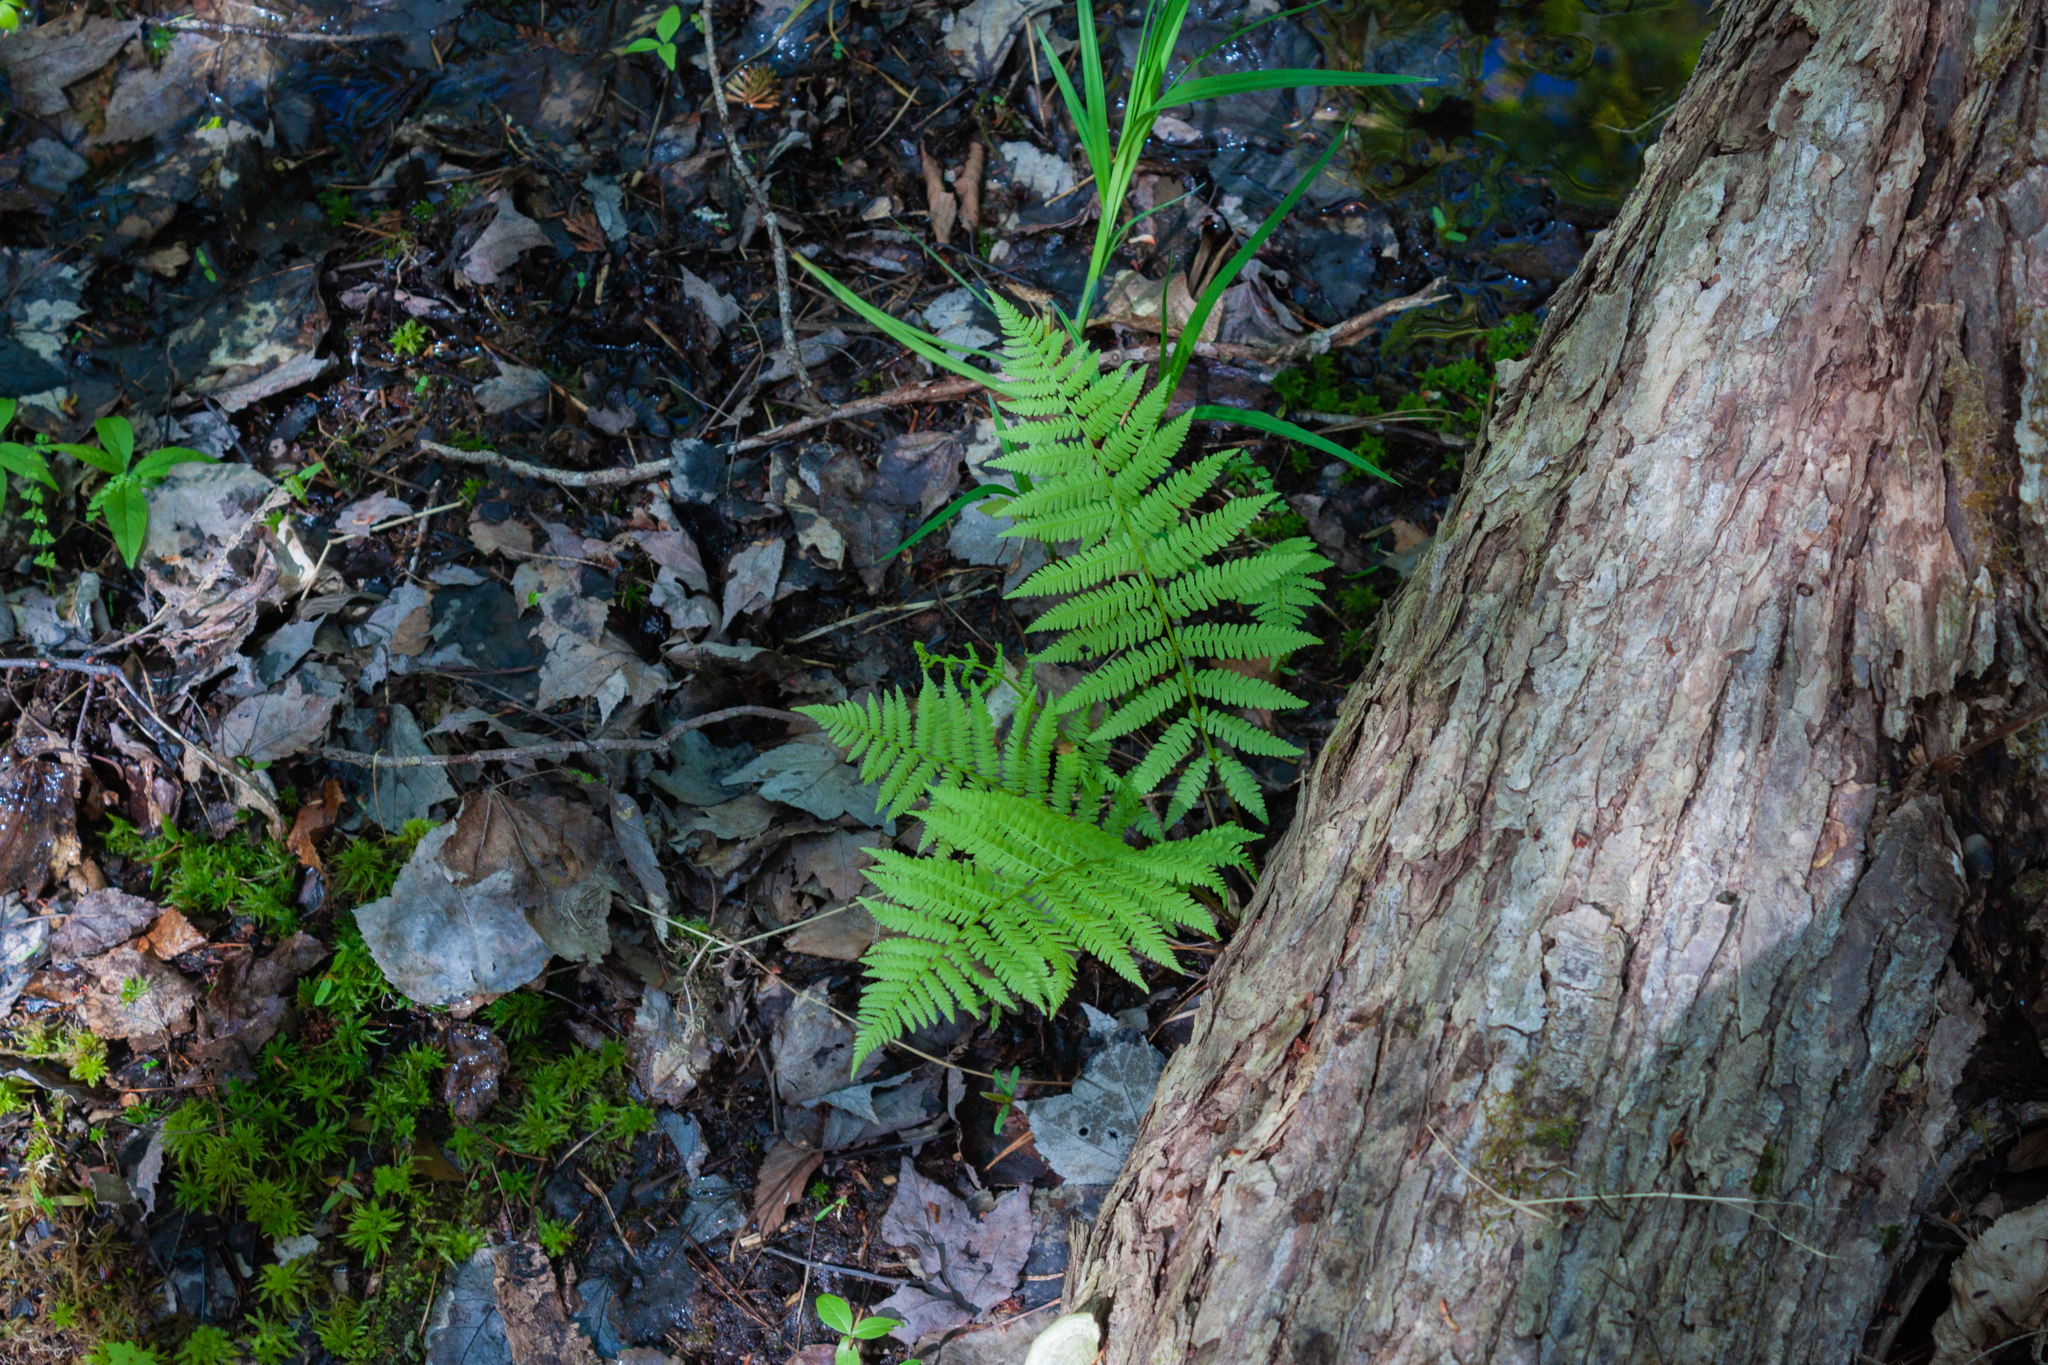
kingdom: Plantae
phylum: Tracheophyta
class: Polypodiopsida
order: Polypodiales
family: Athyriaceae
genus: Athyrium
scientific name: Athyrium angustum
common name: Northern lady fern
